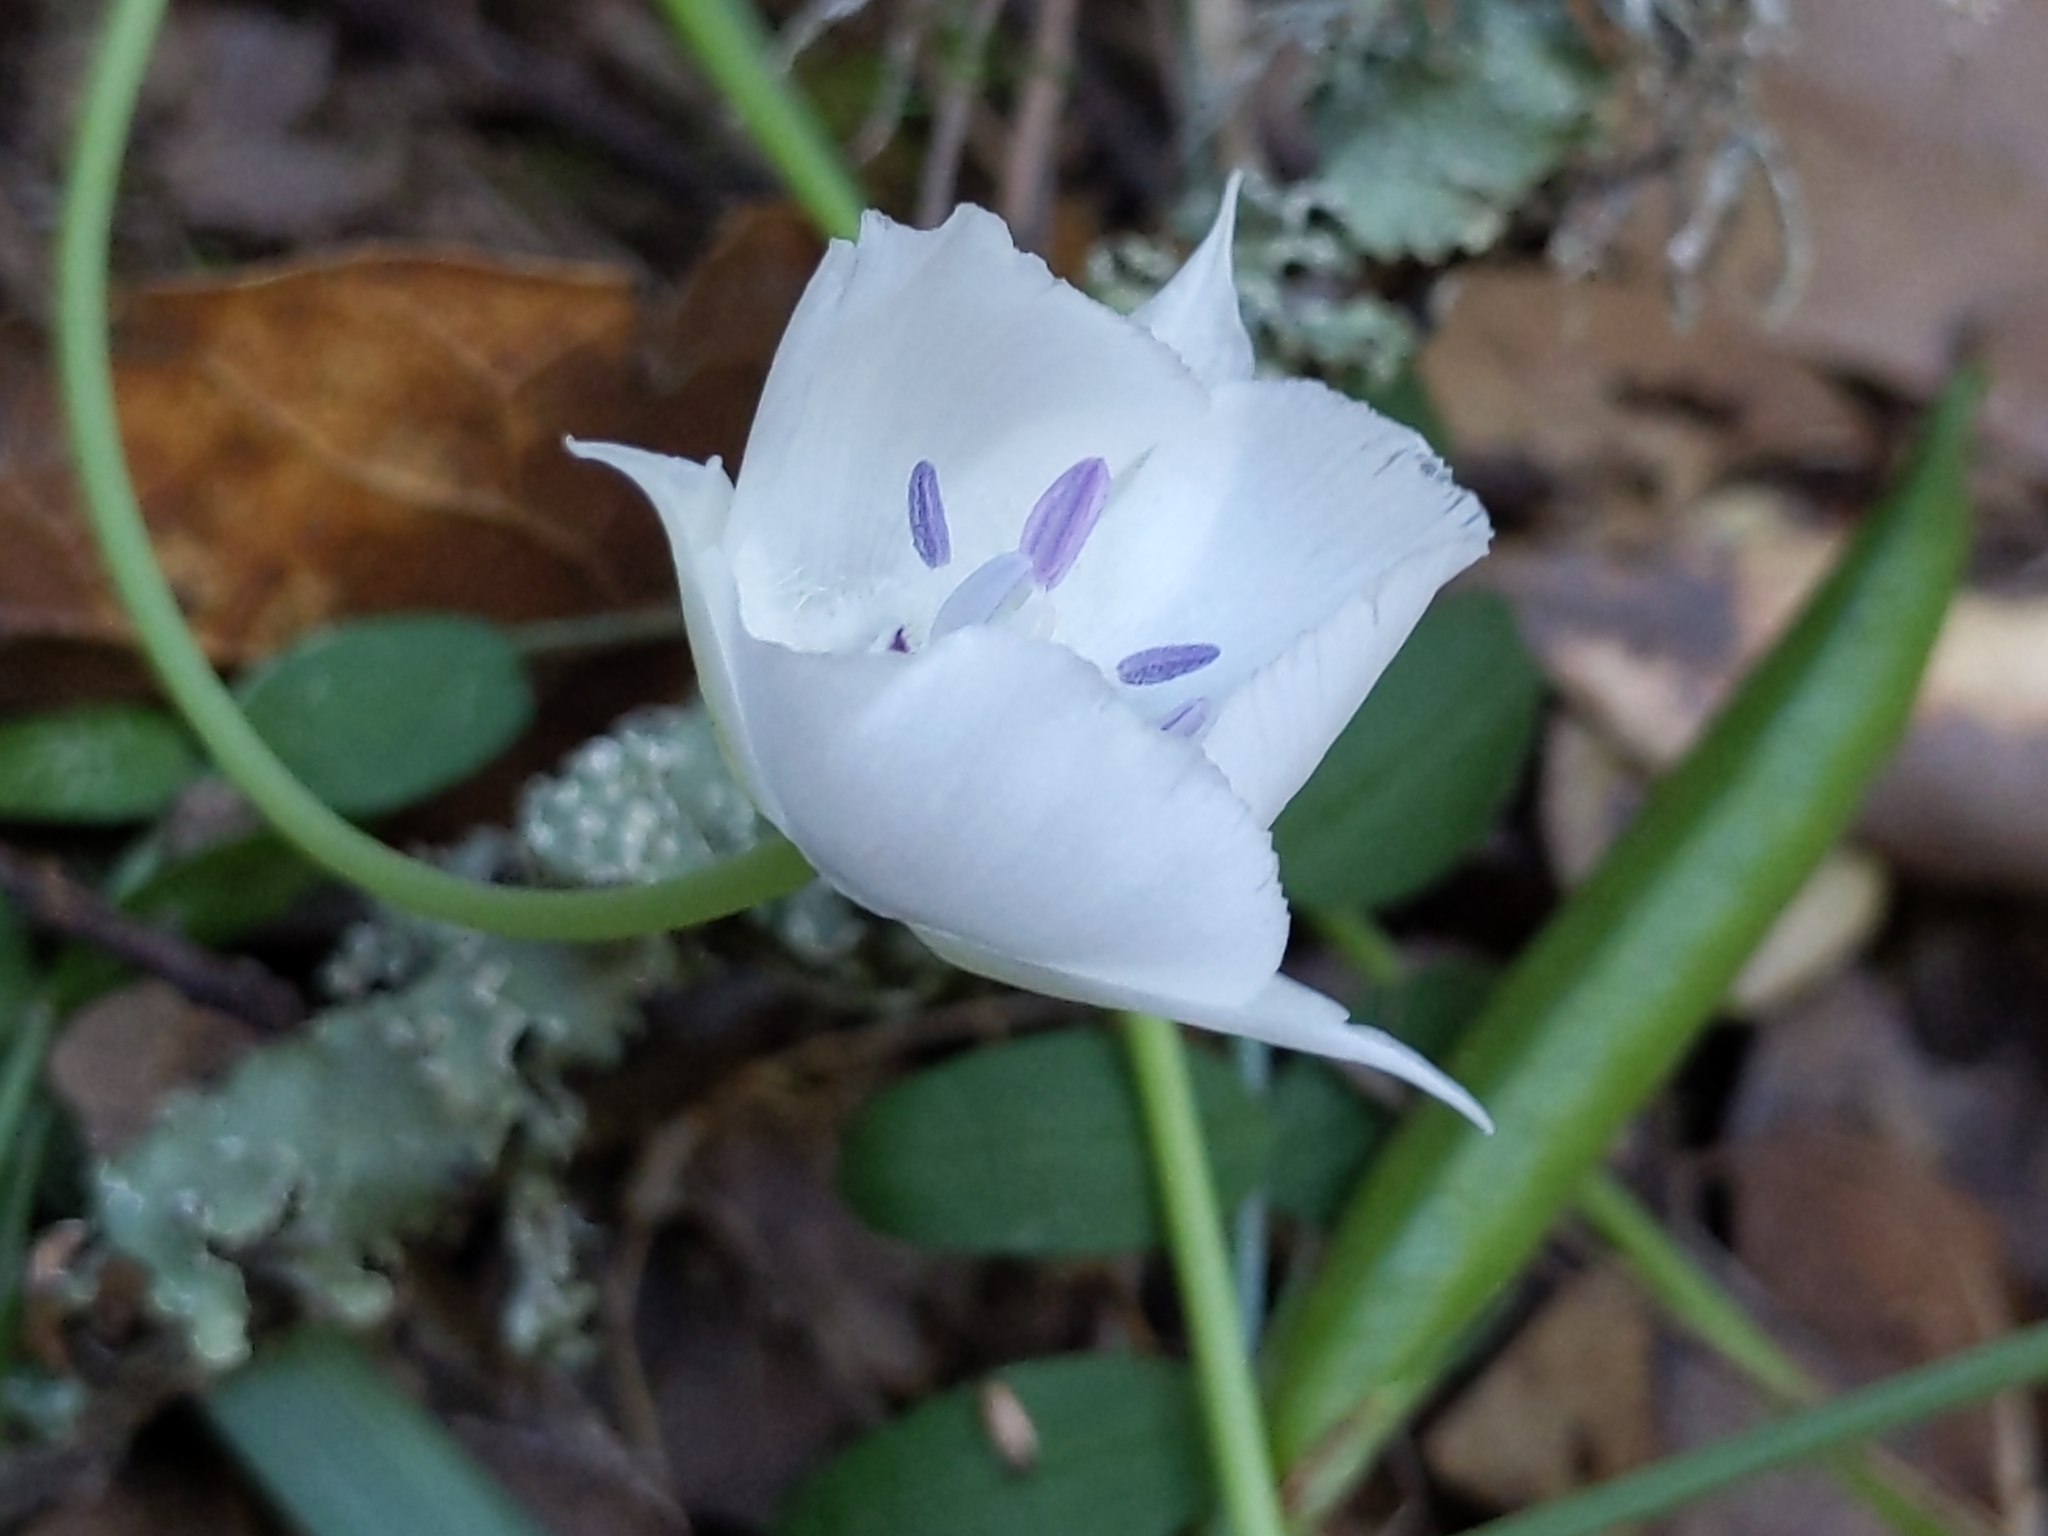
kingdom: Plantae
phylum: Tracheophyta
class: Liliopsida
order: Liliales
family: Liliaceae
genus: Calochortus
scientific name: Calochortus umbellatus
